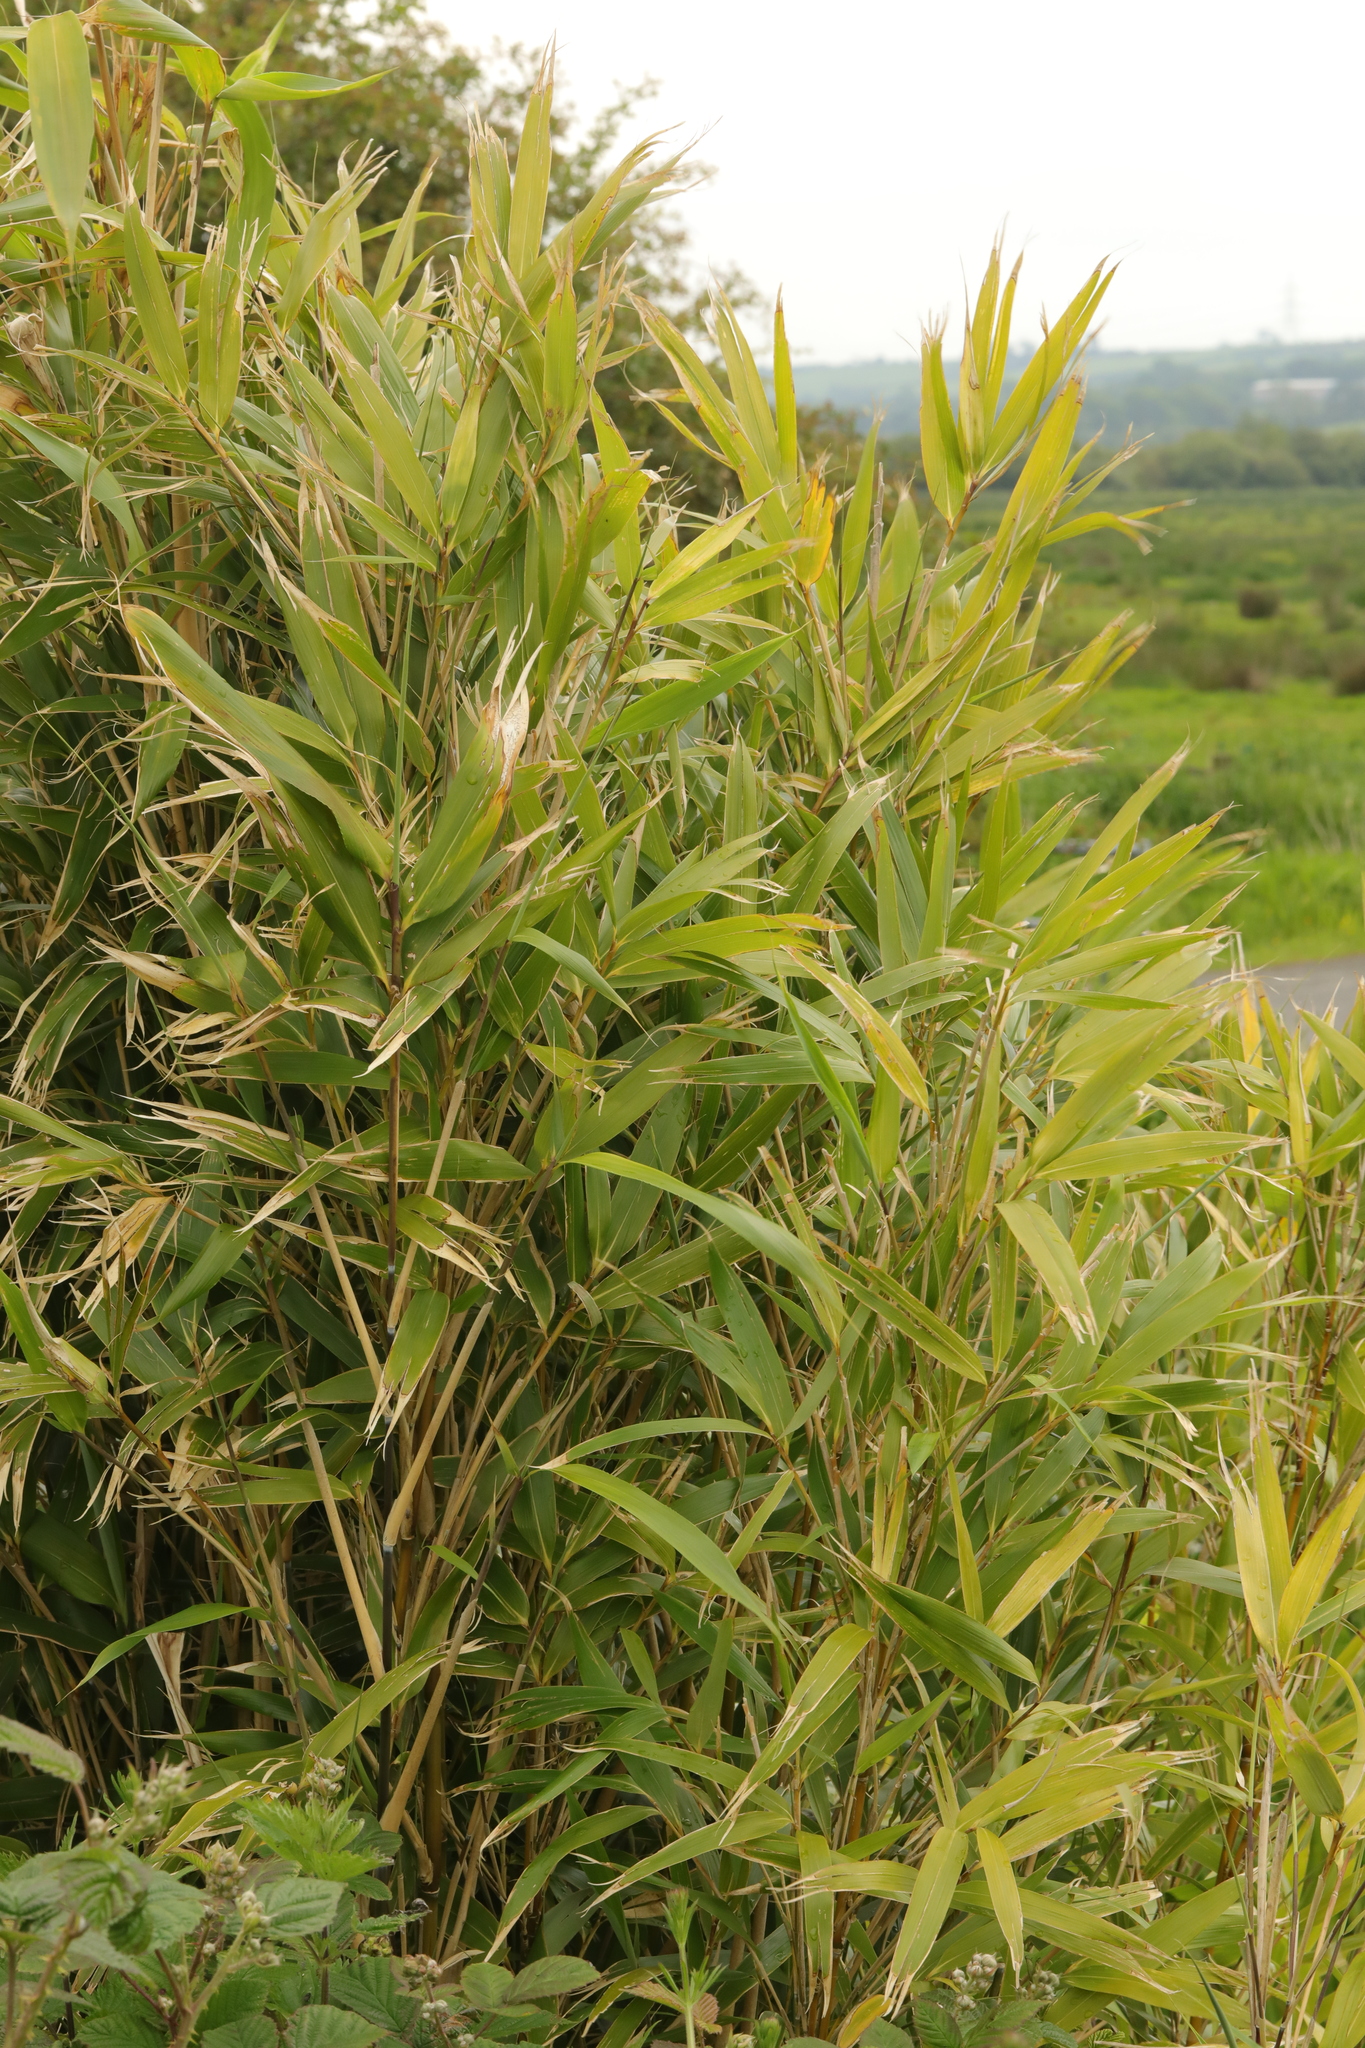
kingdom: Plantae
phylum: Tracheophyta
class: Liliopsida
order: Poales
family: Poaceae
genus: Pseudosasa
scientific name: Pseudosasa japonica
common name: Arrow bamboo
